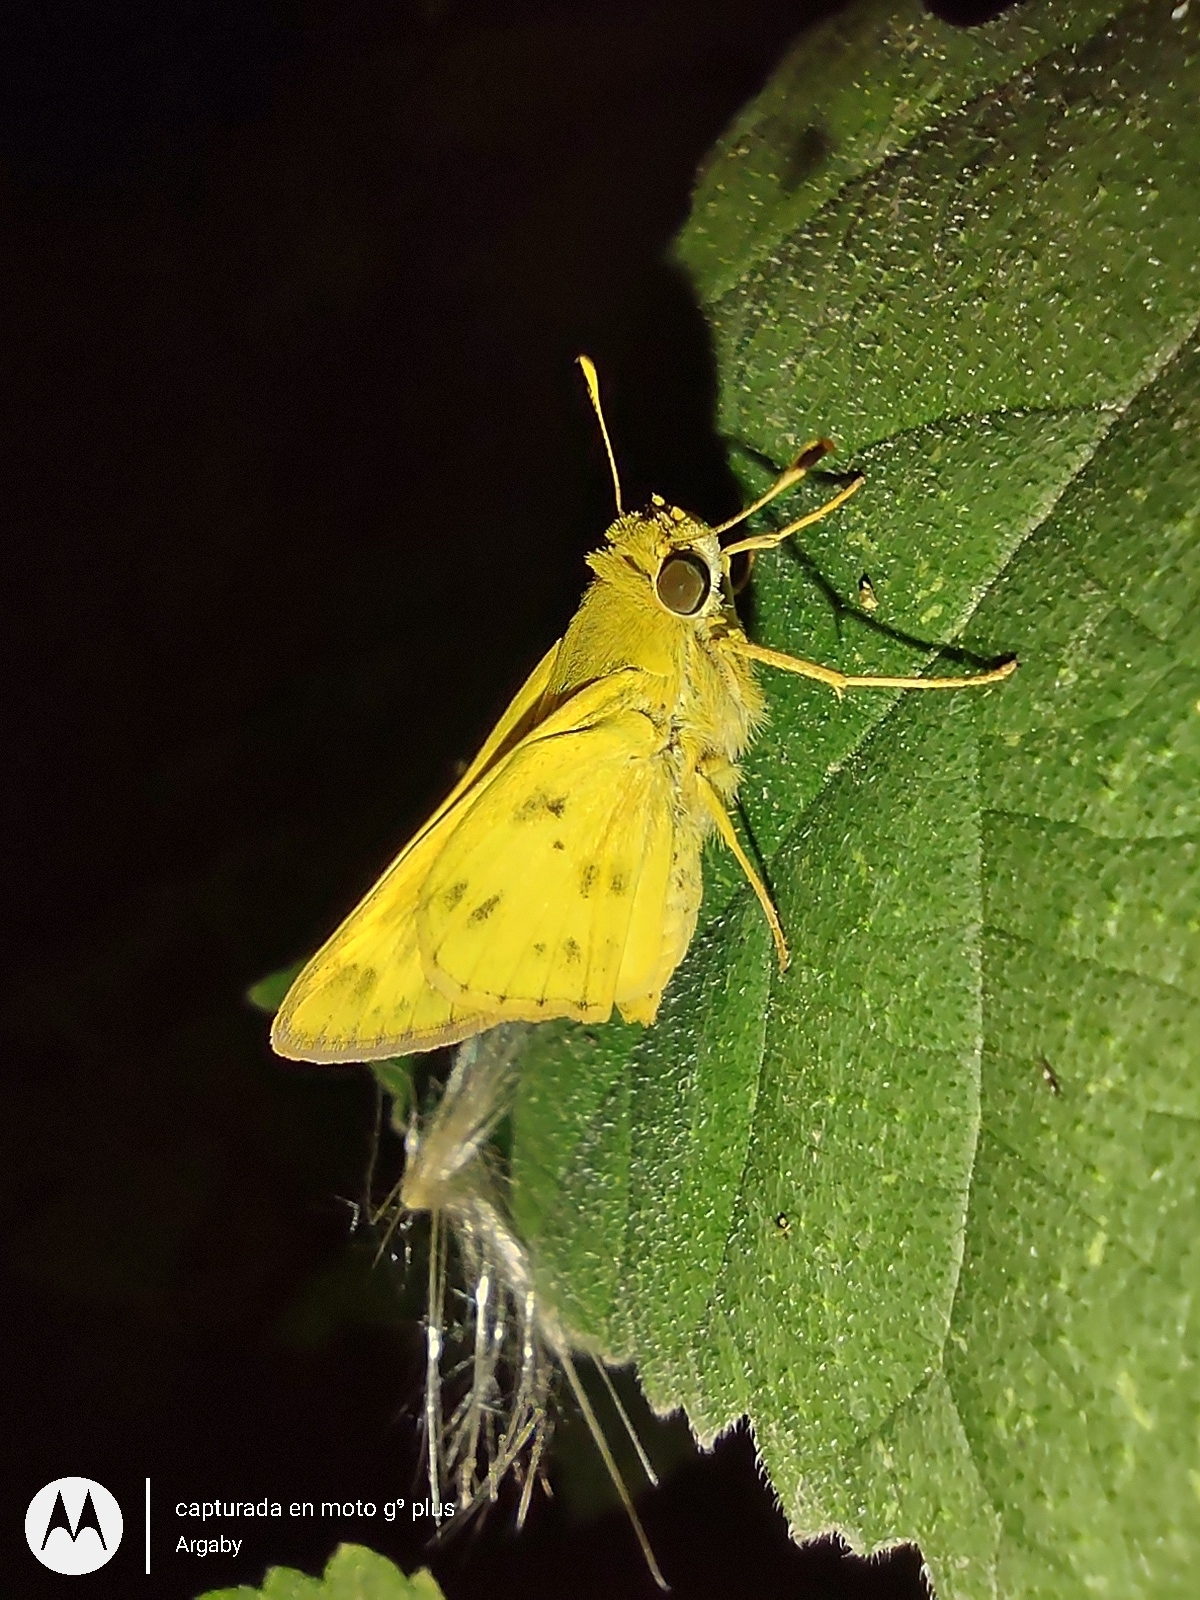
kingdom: Animalia
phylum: Arthropoda
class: Insecta
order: Lepidoptera
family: Hesperiidae
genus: Polites
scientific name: Polites vibex
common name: Whirlabout
